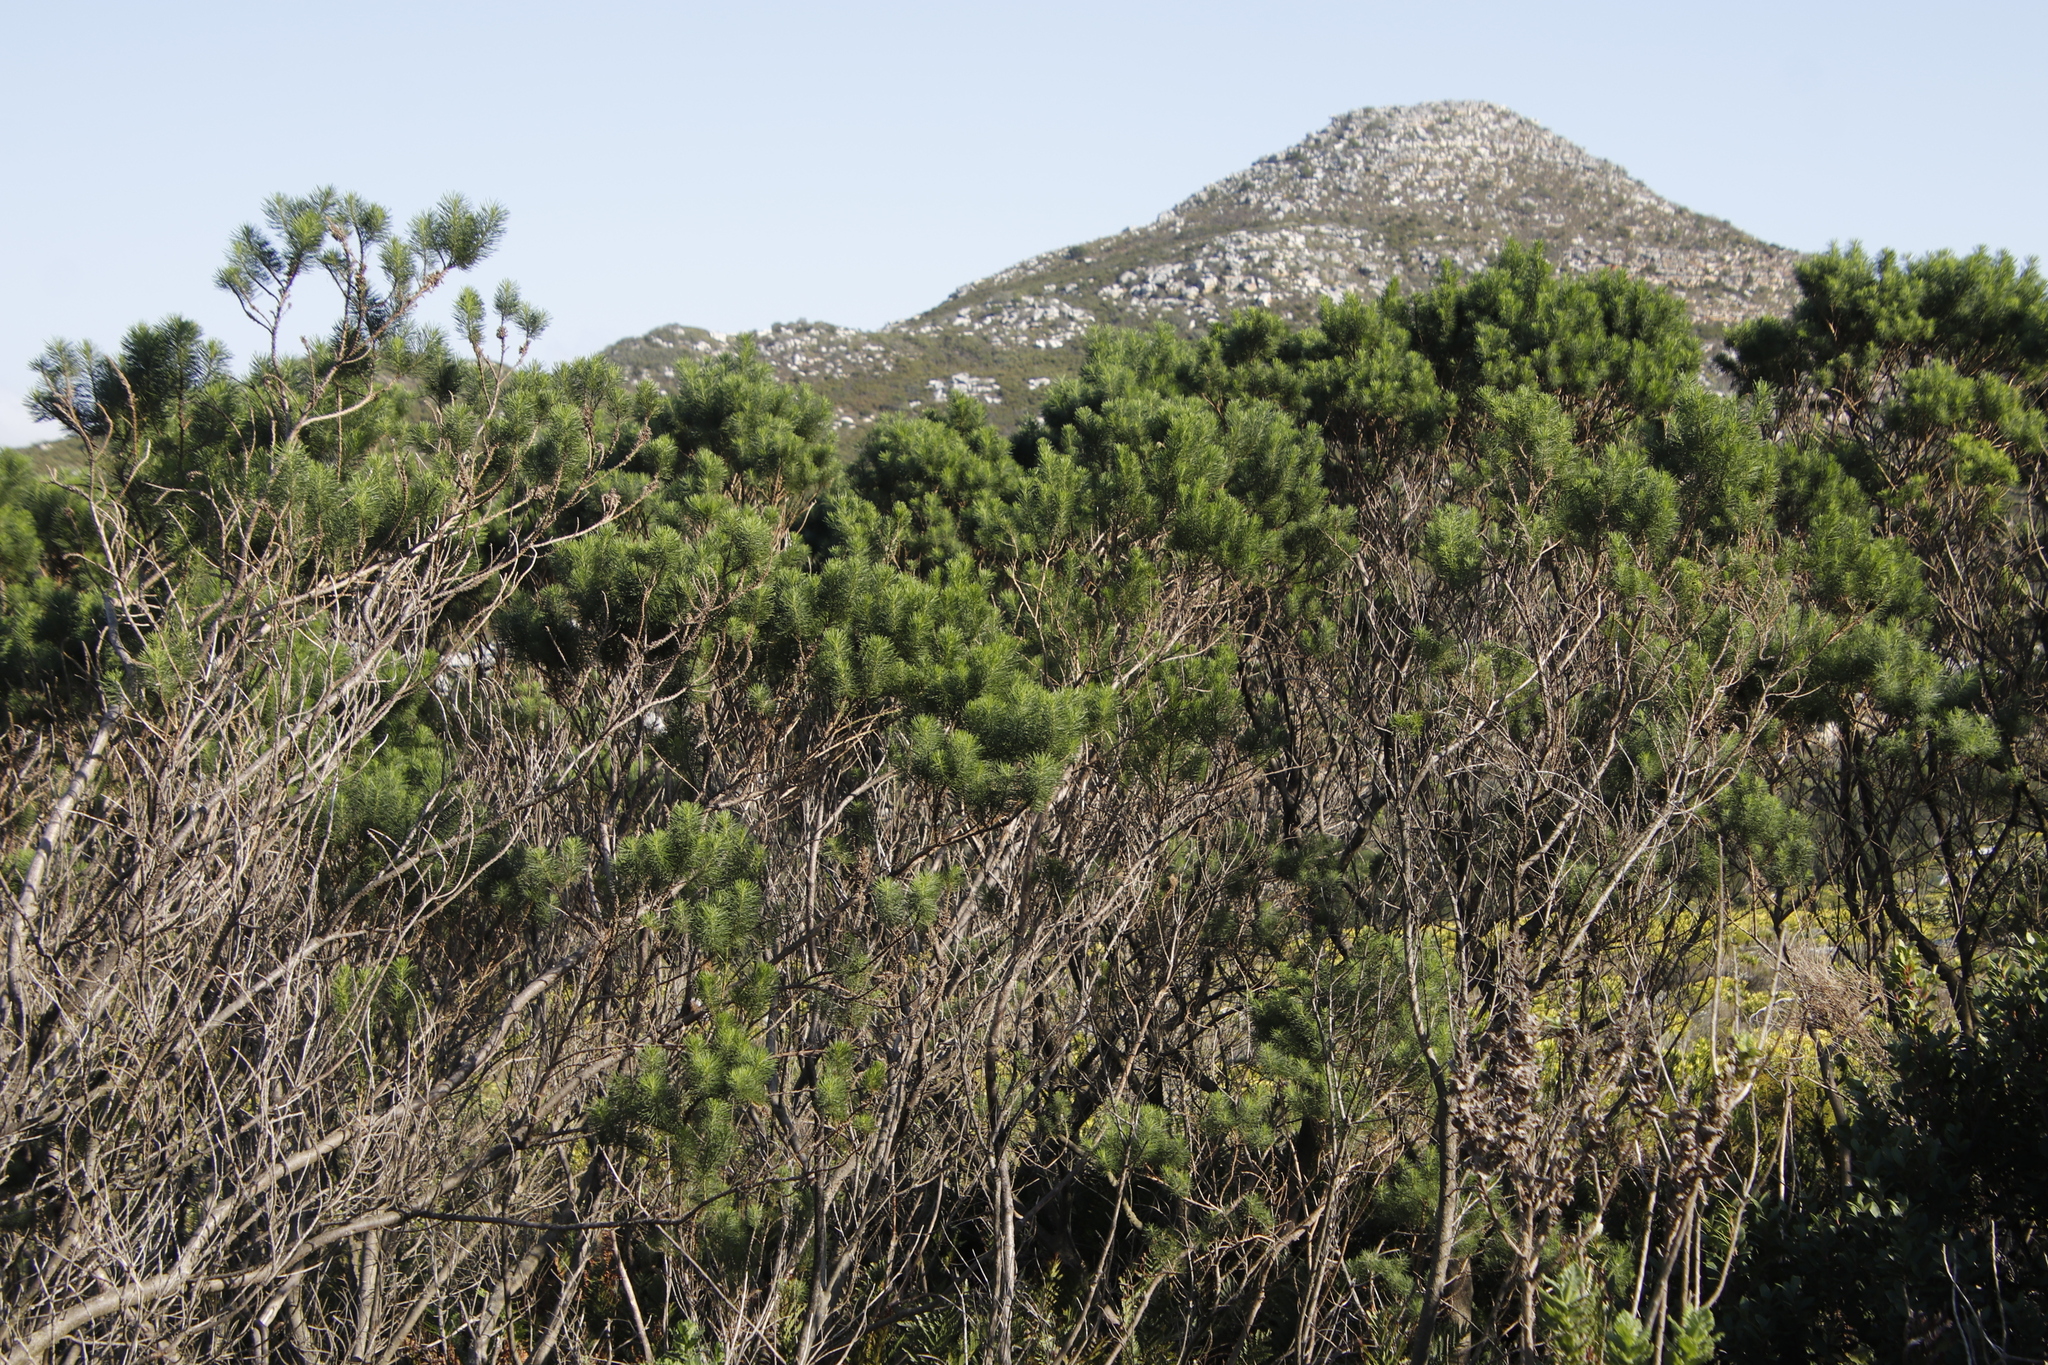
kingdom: Plantae
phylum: Tracheophyta
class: Magnoliopsida
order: Fabales
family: Fabaceae
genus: Psoralea
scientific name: Psoralea pinnata
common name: African scurfpea
